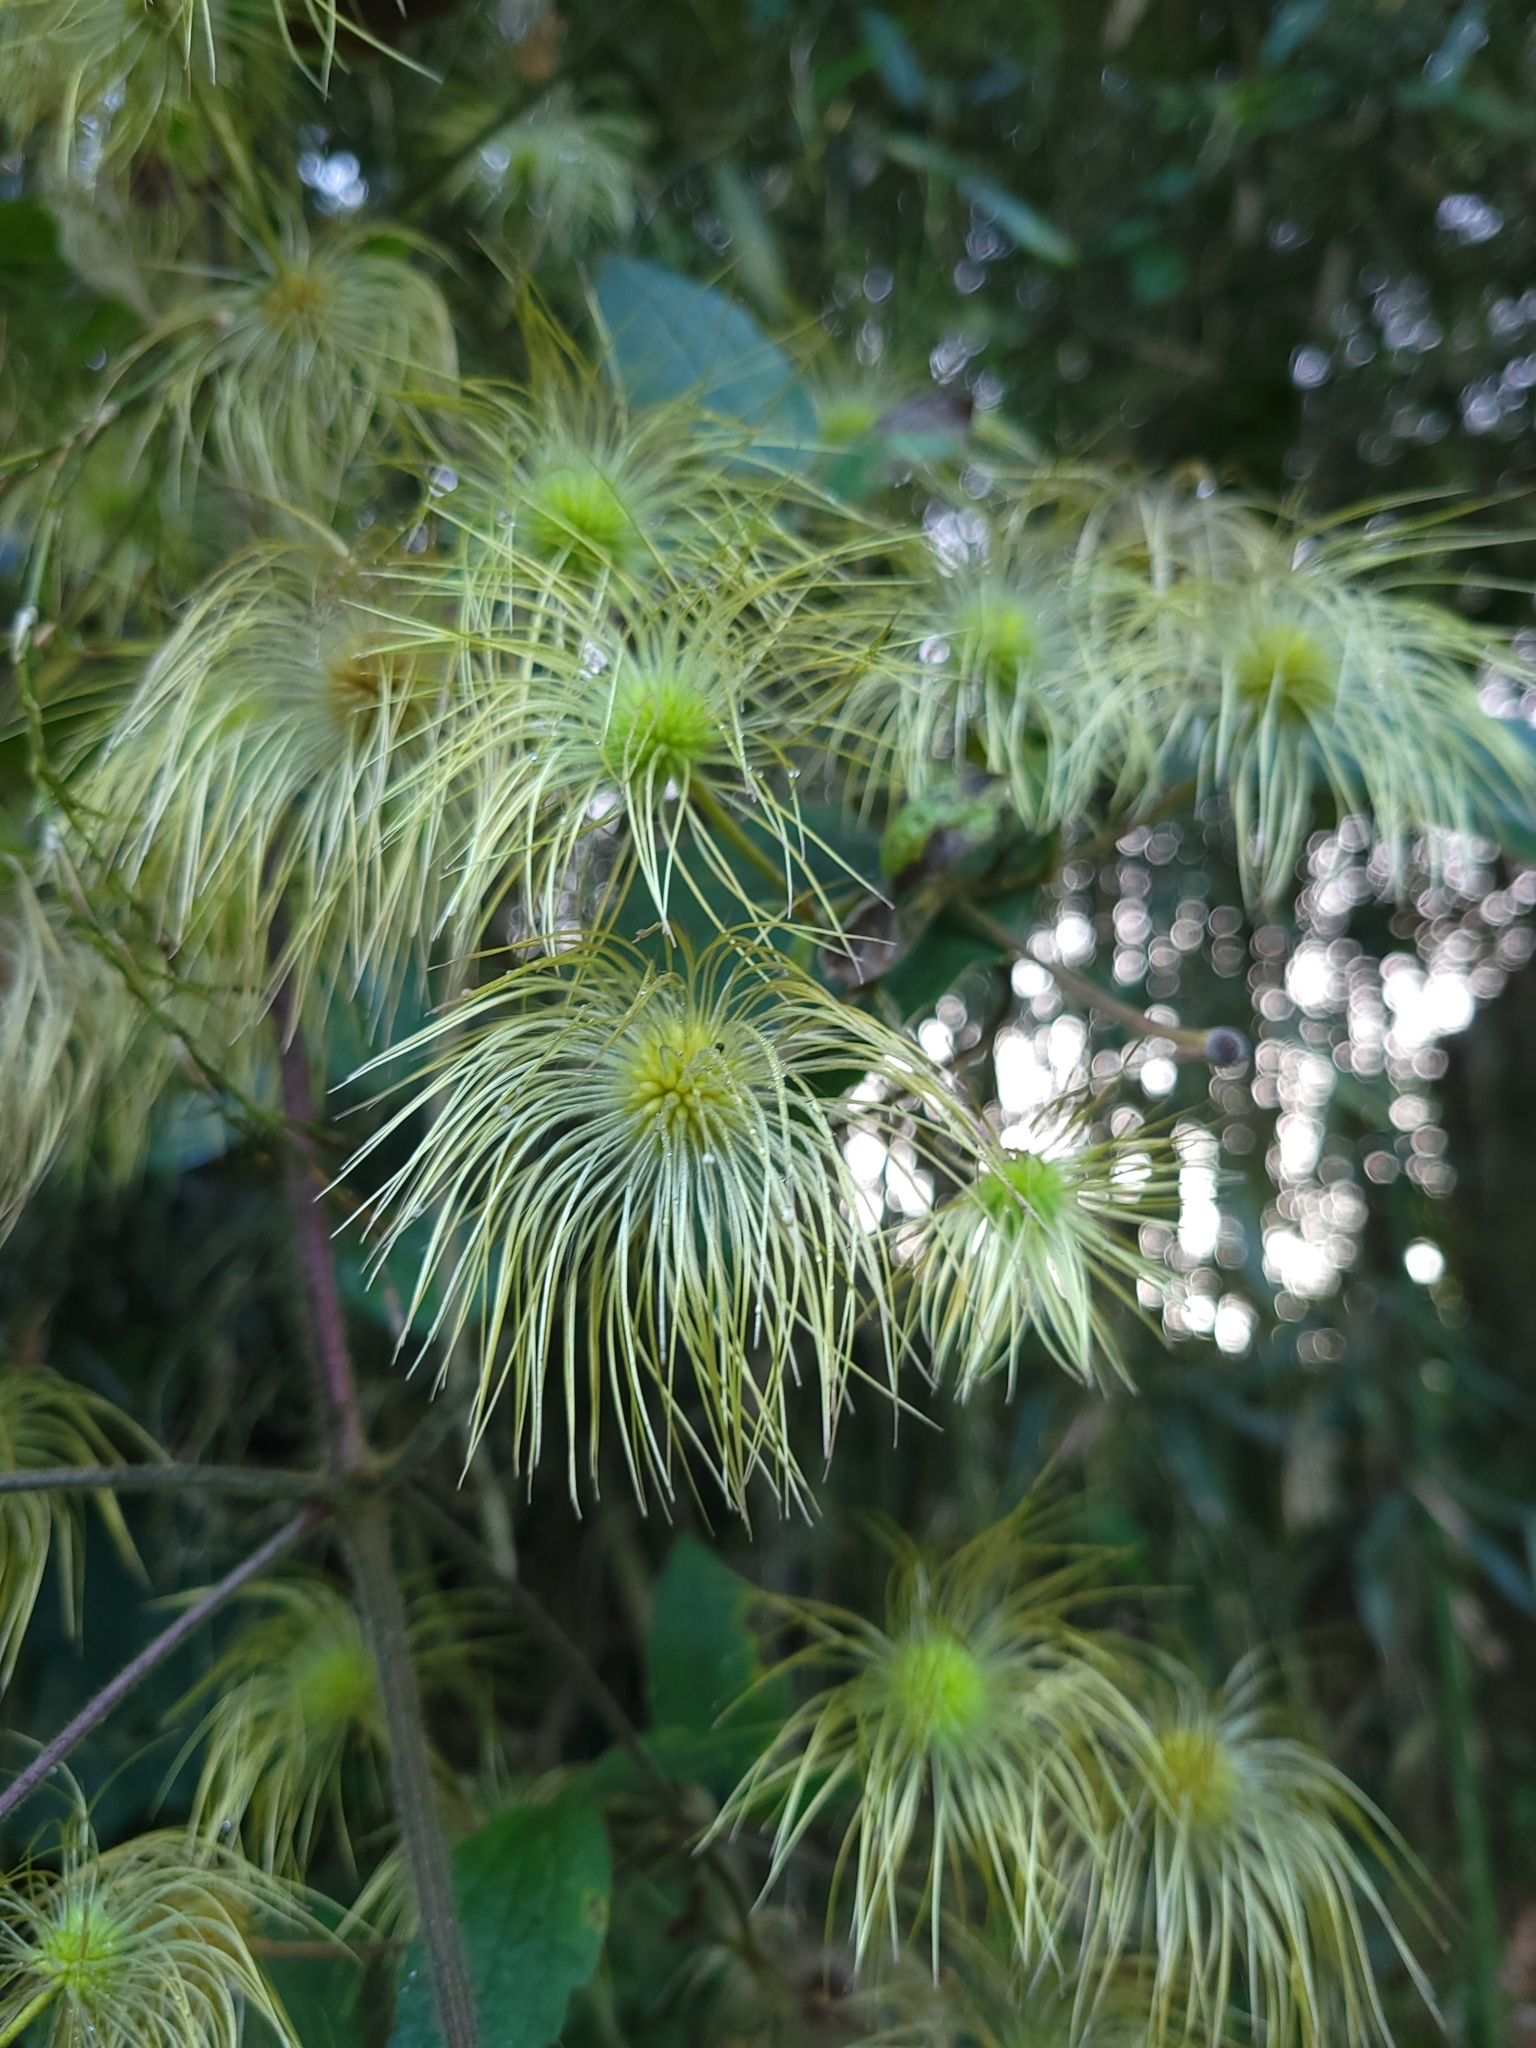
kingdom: Plantae
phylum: Tracheophyta
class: Magnoliopsida
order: Ranunculales
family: Ranunculaceae
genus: Clematis
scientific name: Clematis leschenaultiana
